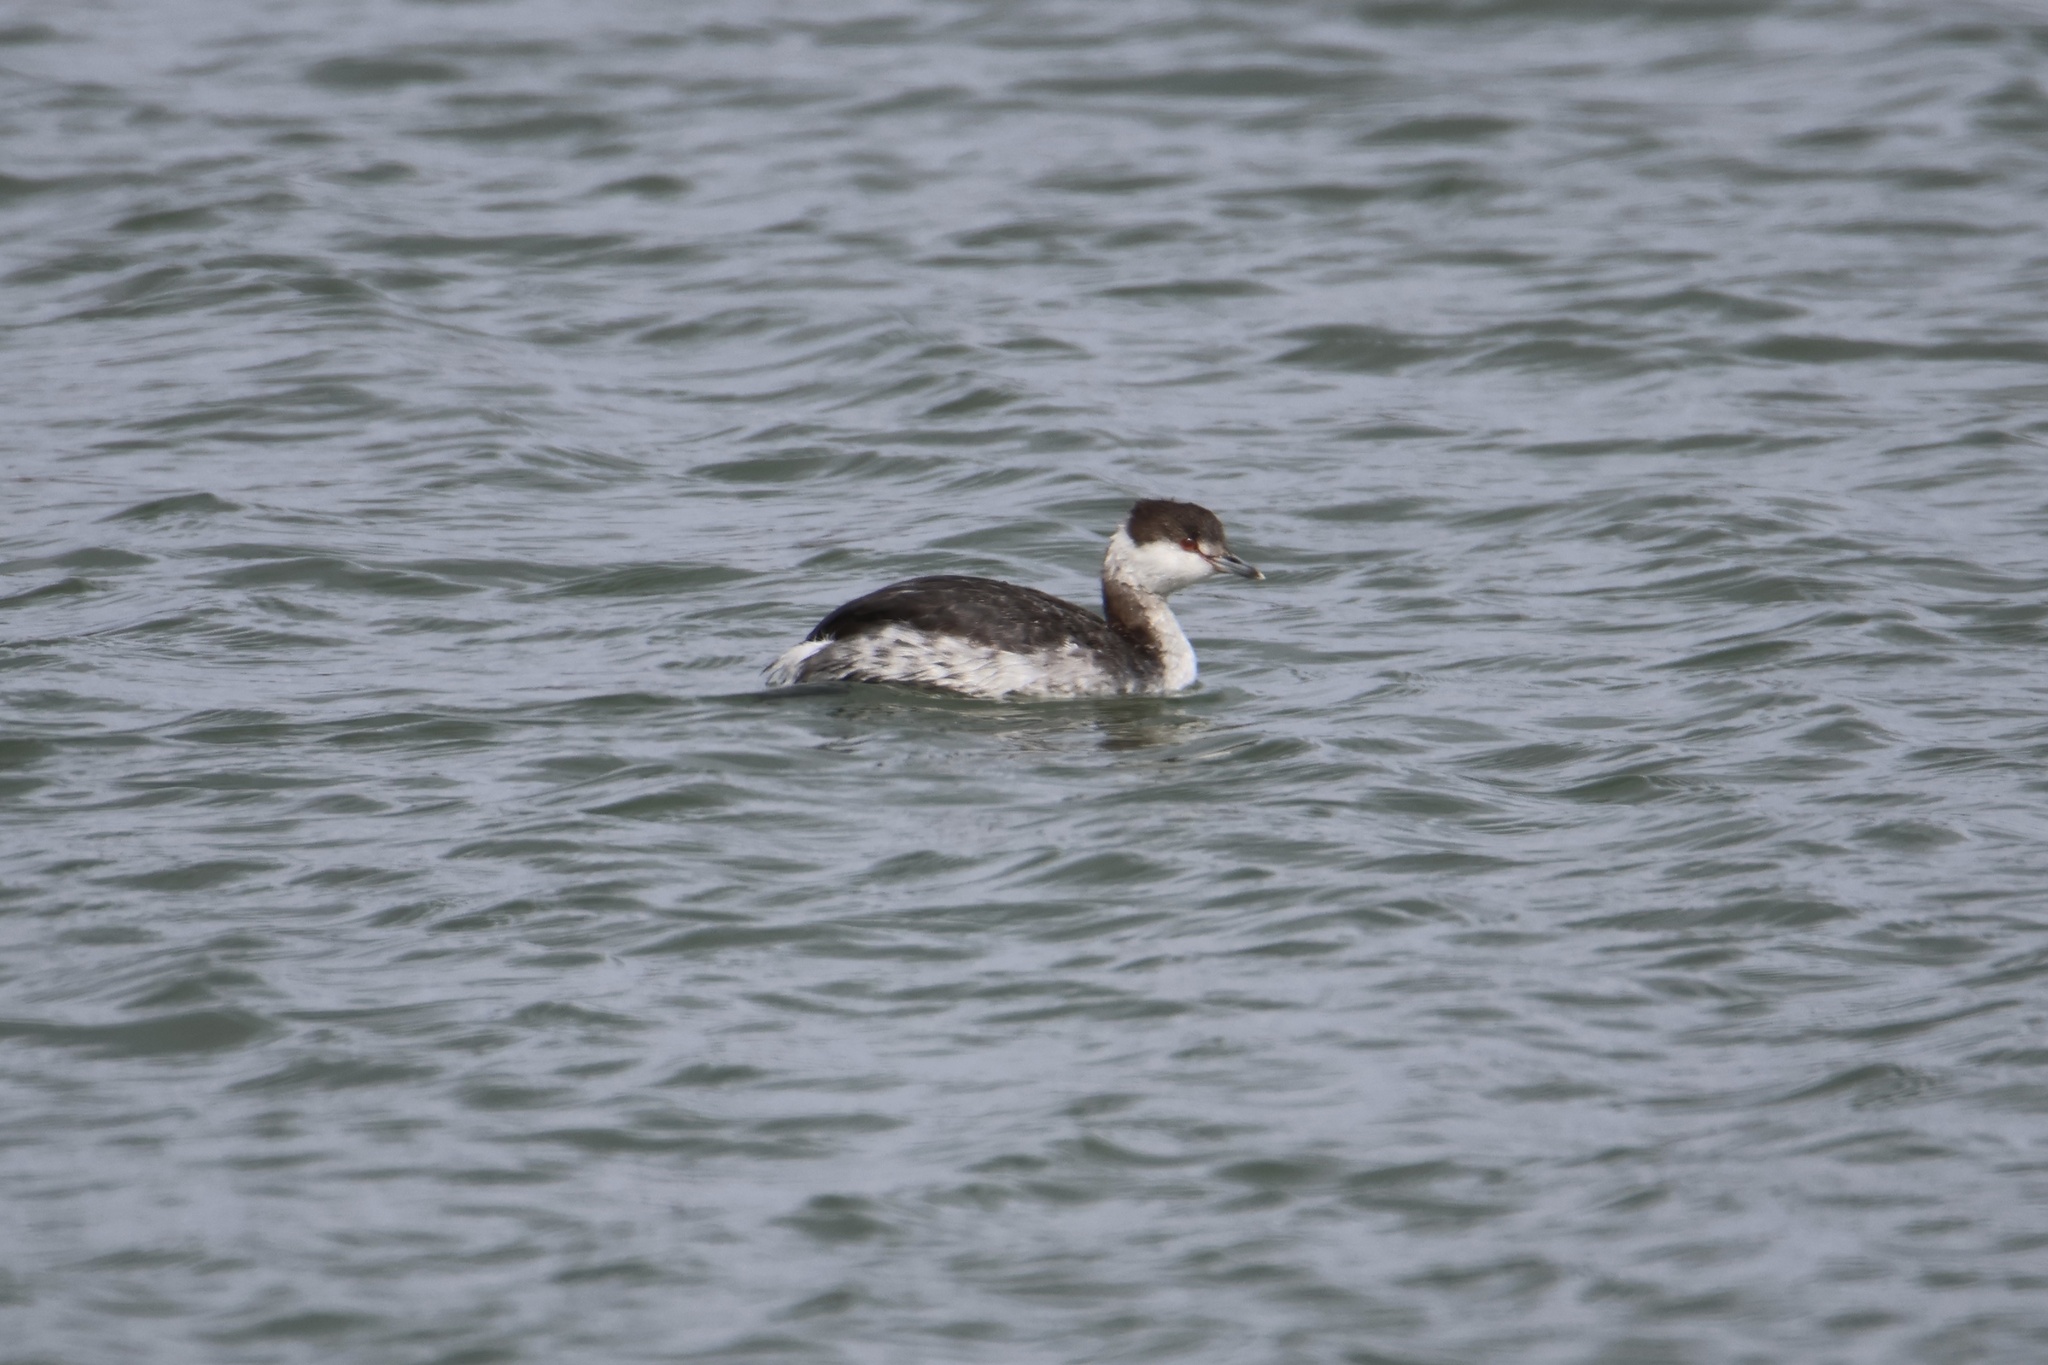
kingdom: Animalia
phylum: Chordata
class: Aves
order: Podicipediformes
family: Podicipedidae
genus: Podiceps
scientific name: Podiceps auritus
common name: Horned grebe
